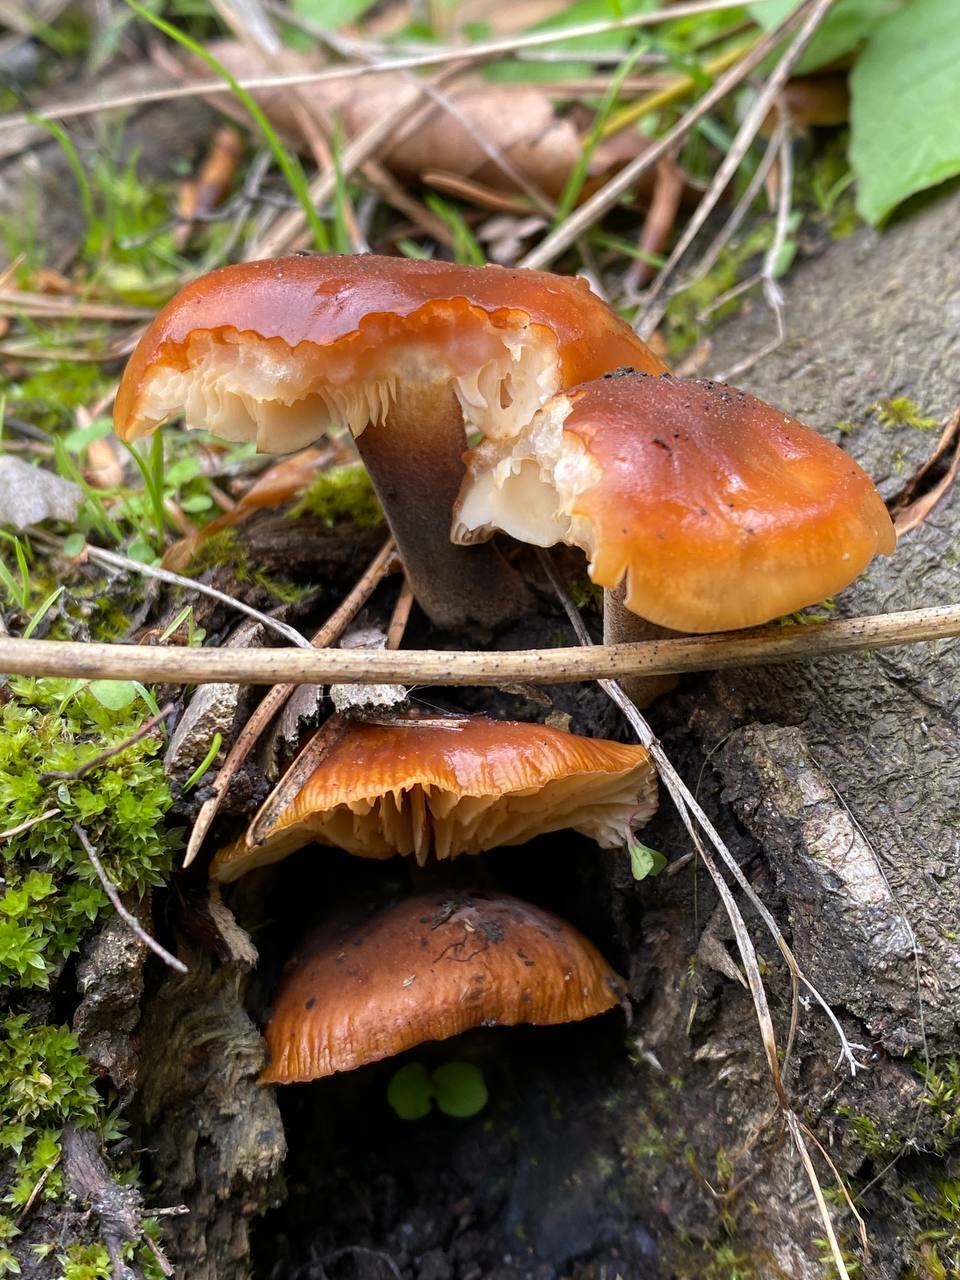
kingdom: Fungi
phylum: Basidiomycota
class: Agaricomycetes
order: Agaricales
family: Physalacriaceae
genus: Flammulina
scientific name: Flammulina
